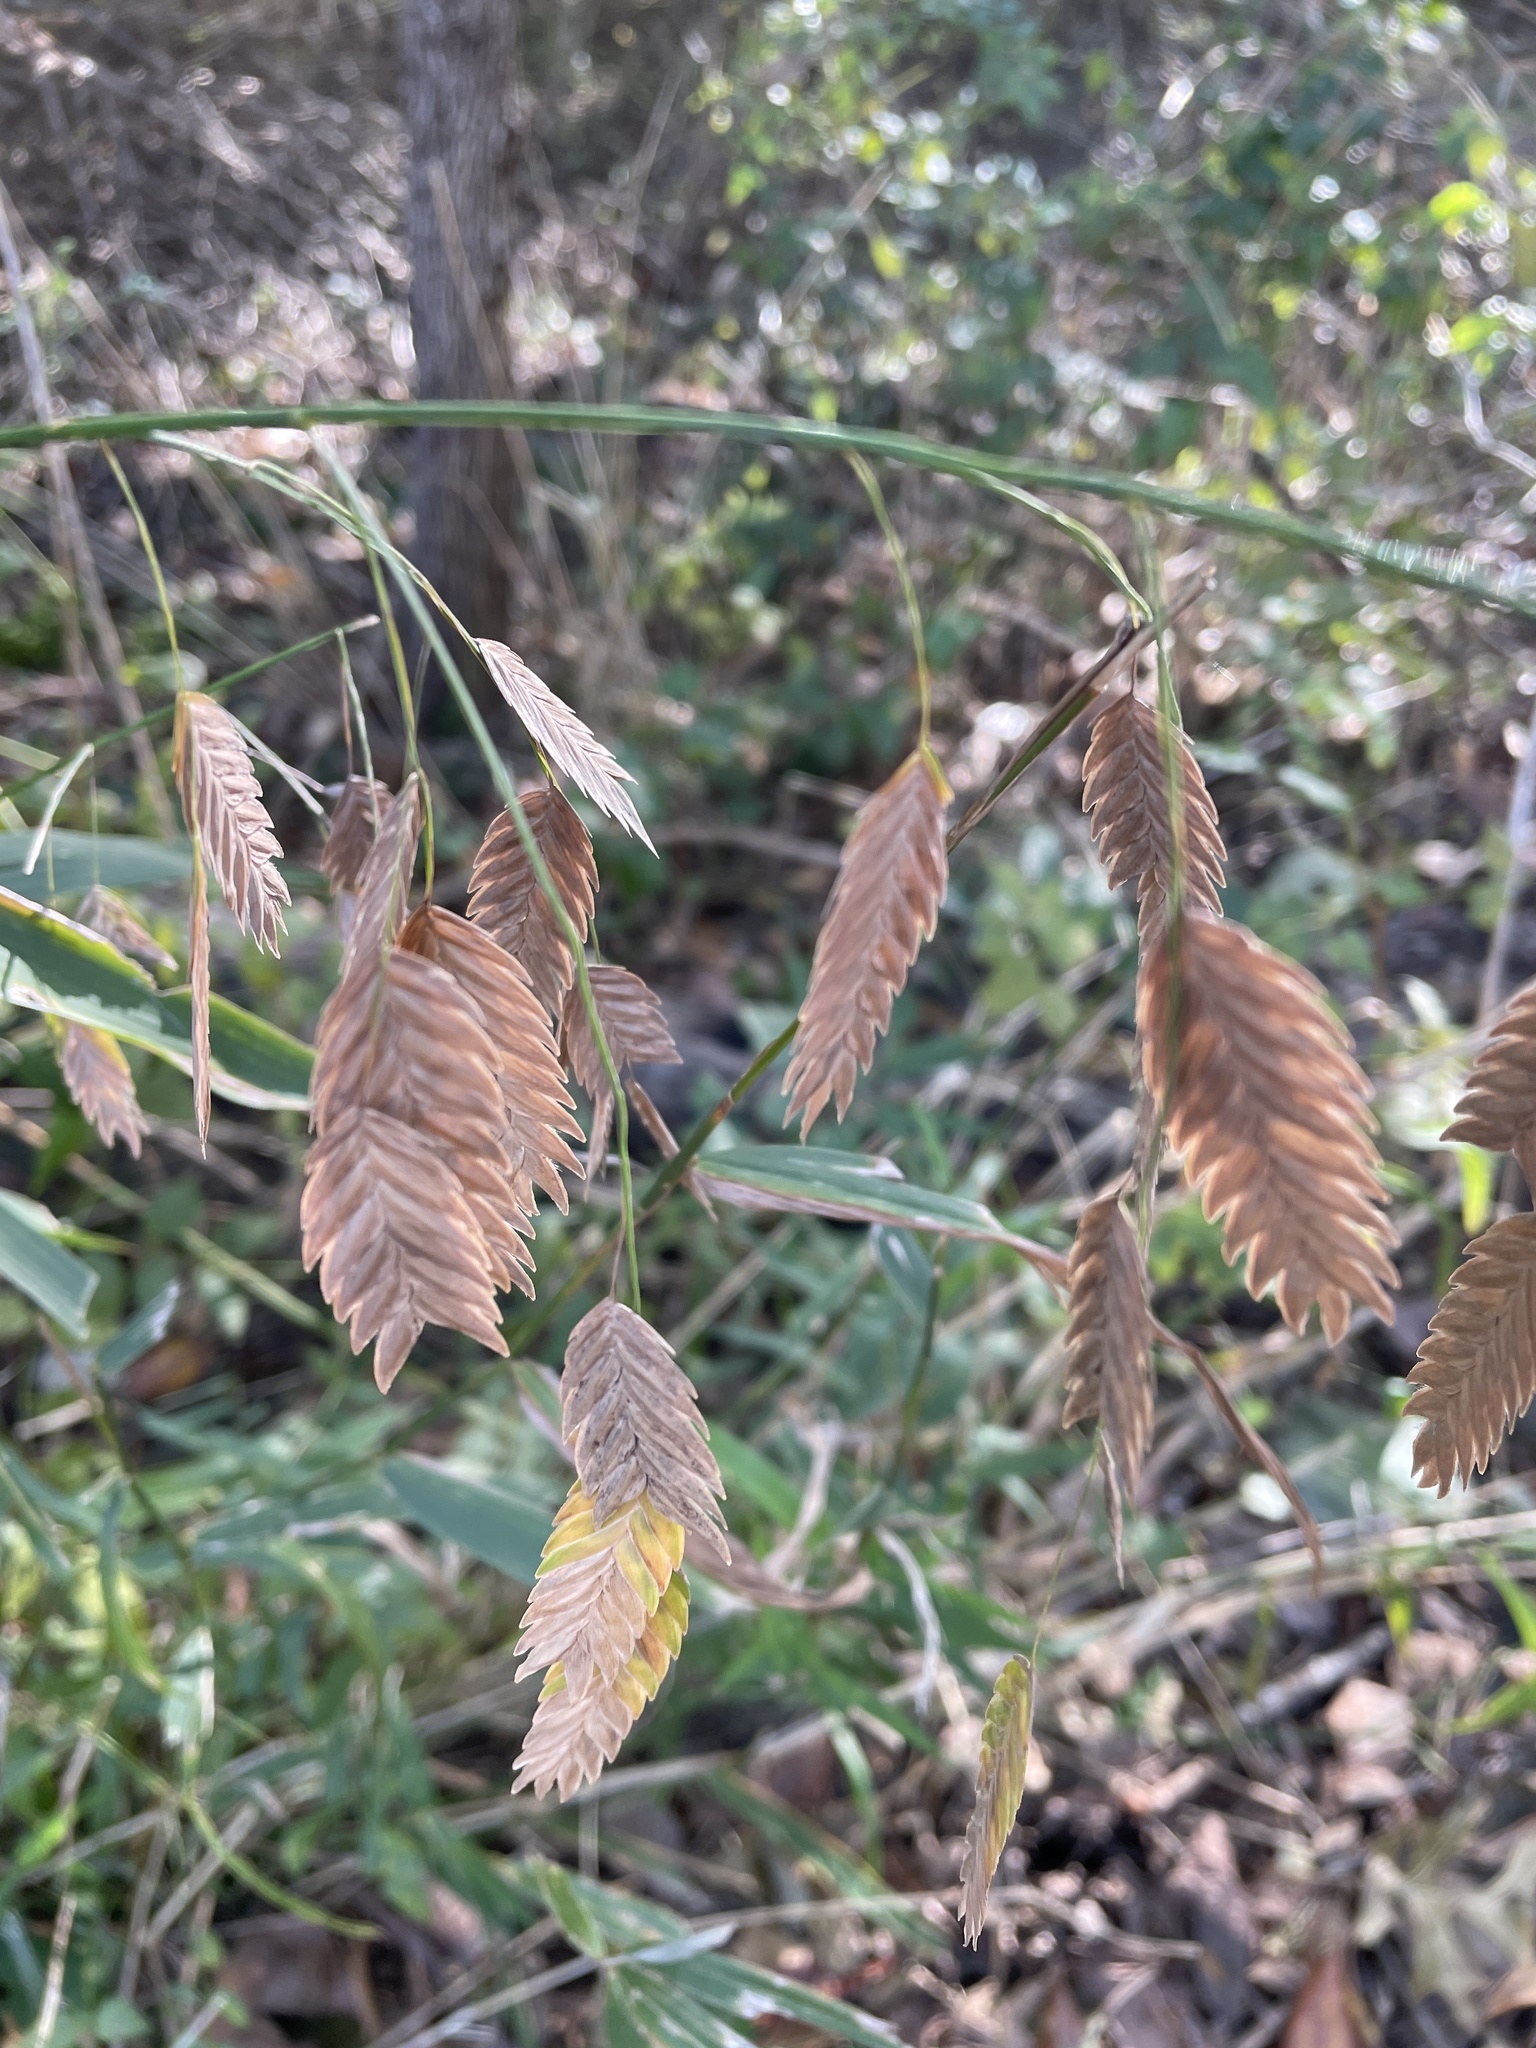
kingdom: Plantae
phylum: Tracheophyta
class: Liliopsida
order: Poales
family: Poaceae
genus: Chasmanthium
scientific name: Chasmanthium latifolium
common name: Broad-leaved chasmanthium
